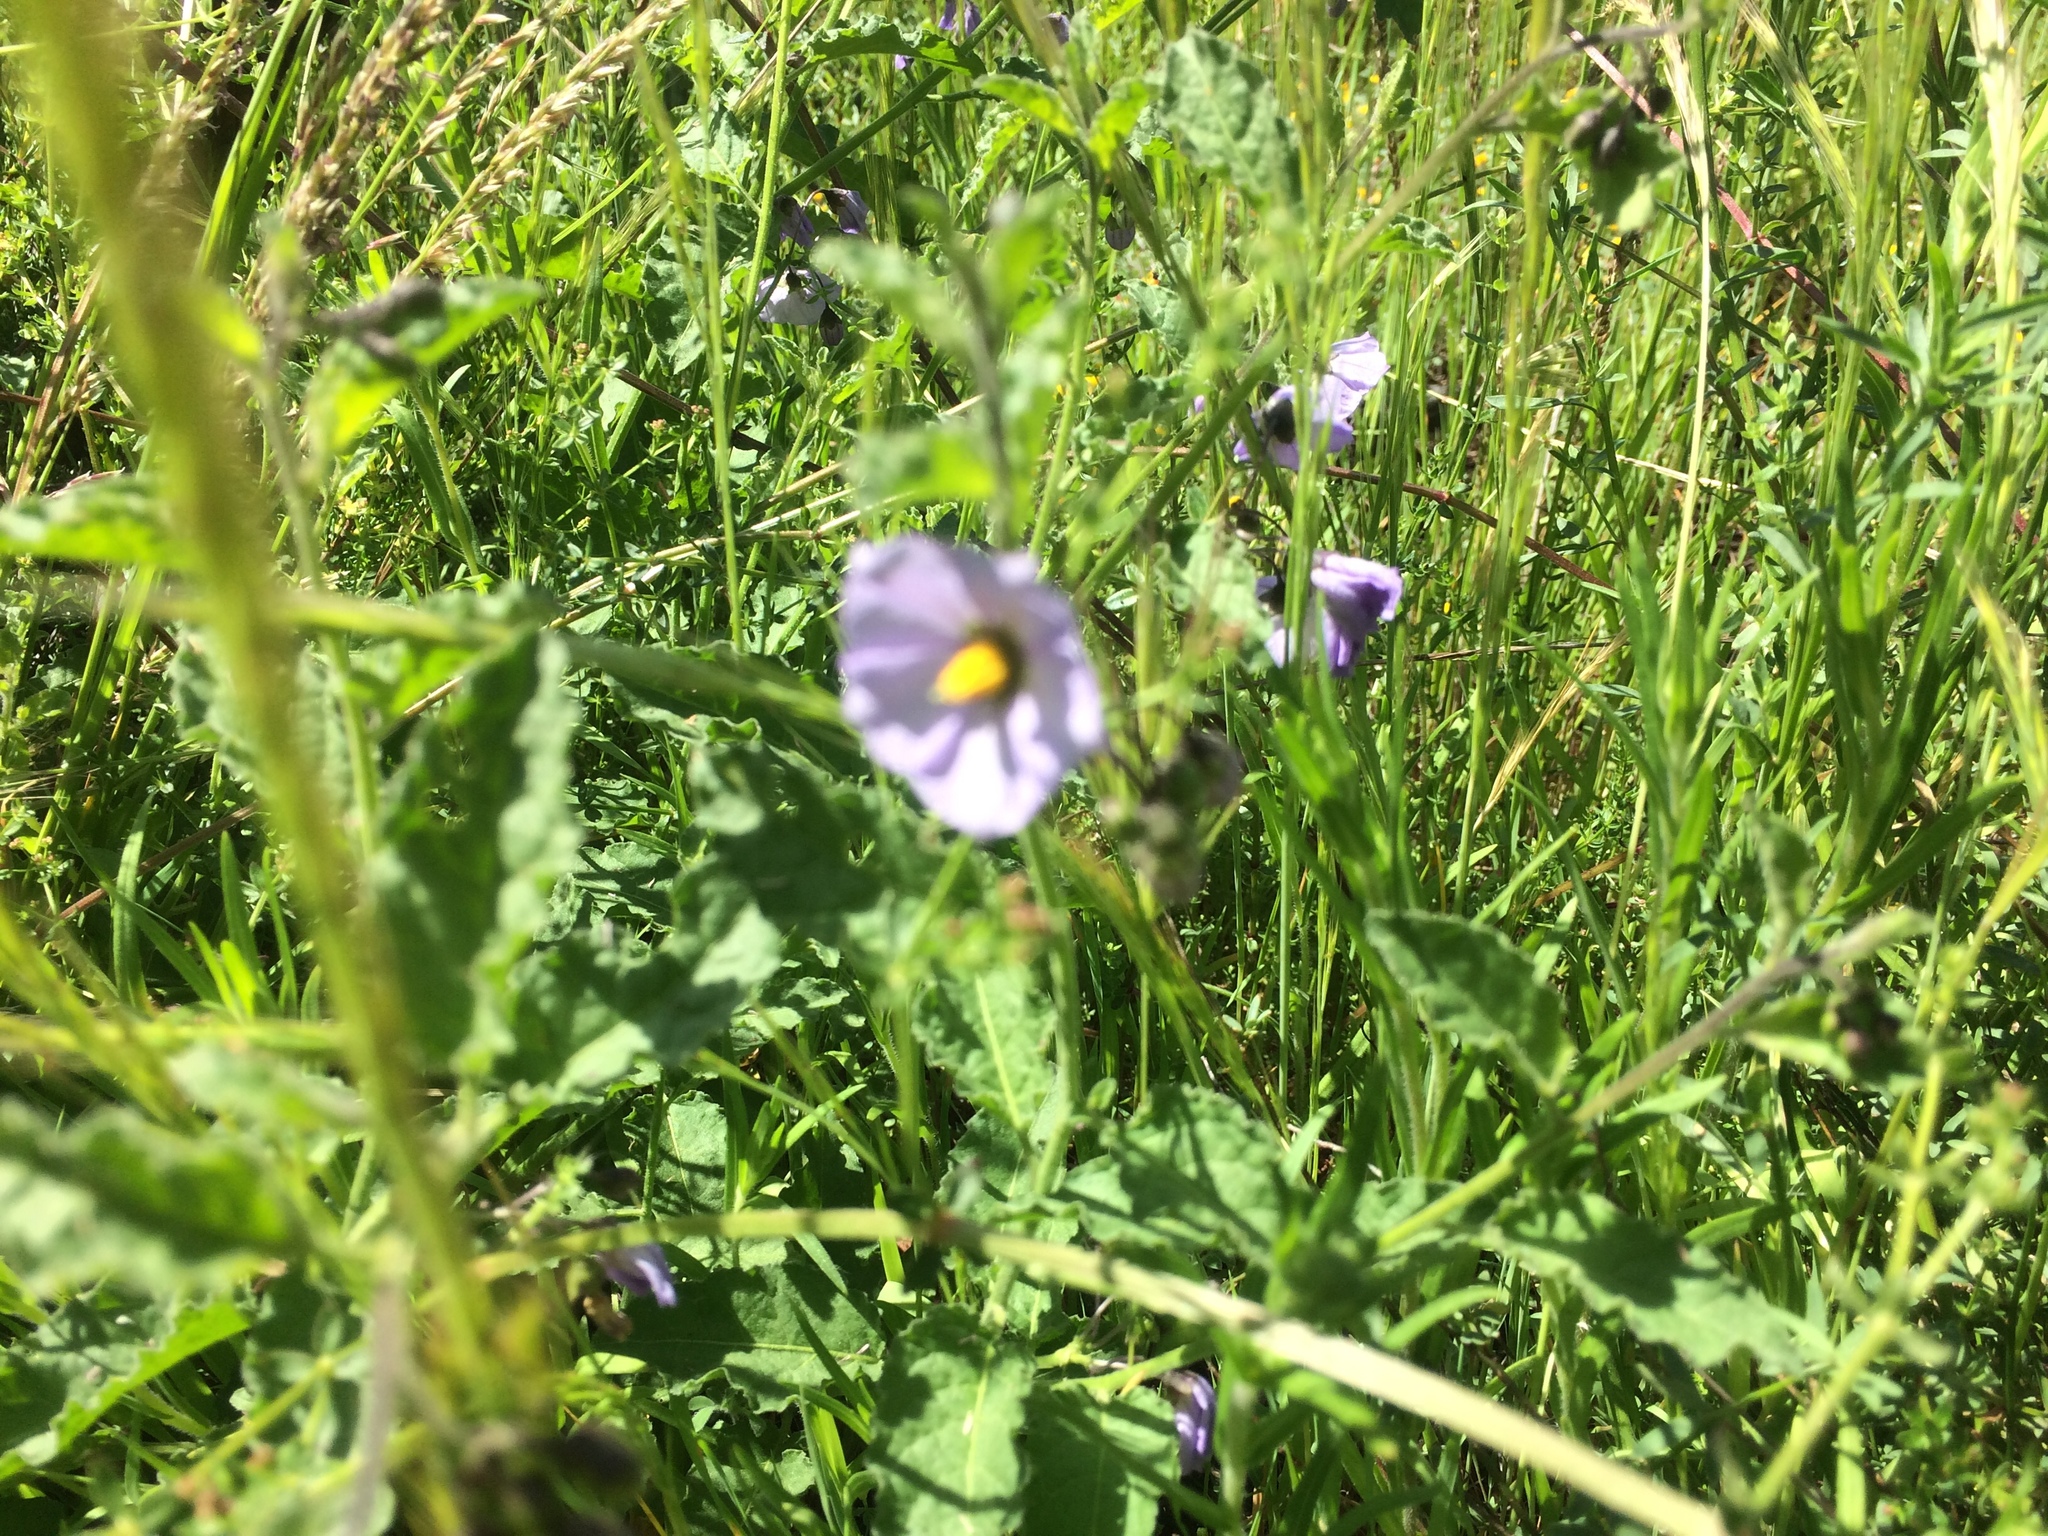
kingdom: Plantae
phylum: Tracheophyta
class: Magnoliopsida
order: Solanales
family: Solanaceae
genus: Solanum
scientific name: Solanum umbelliferum
